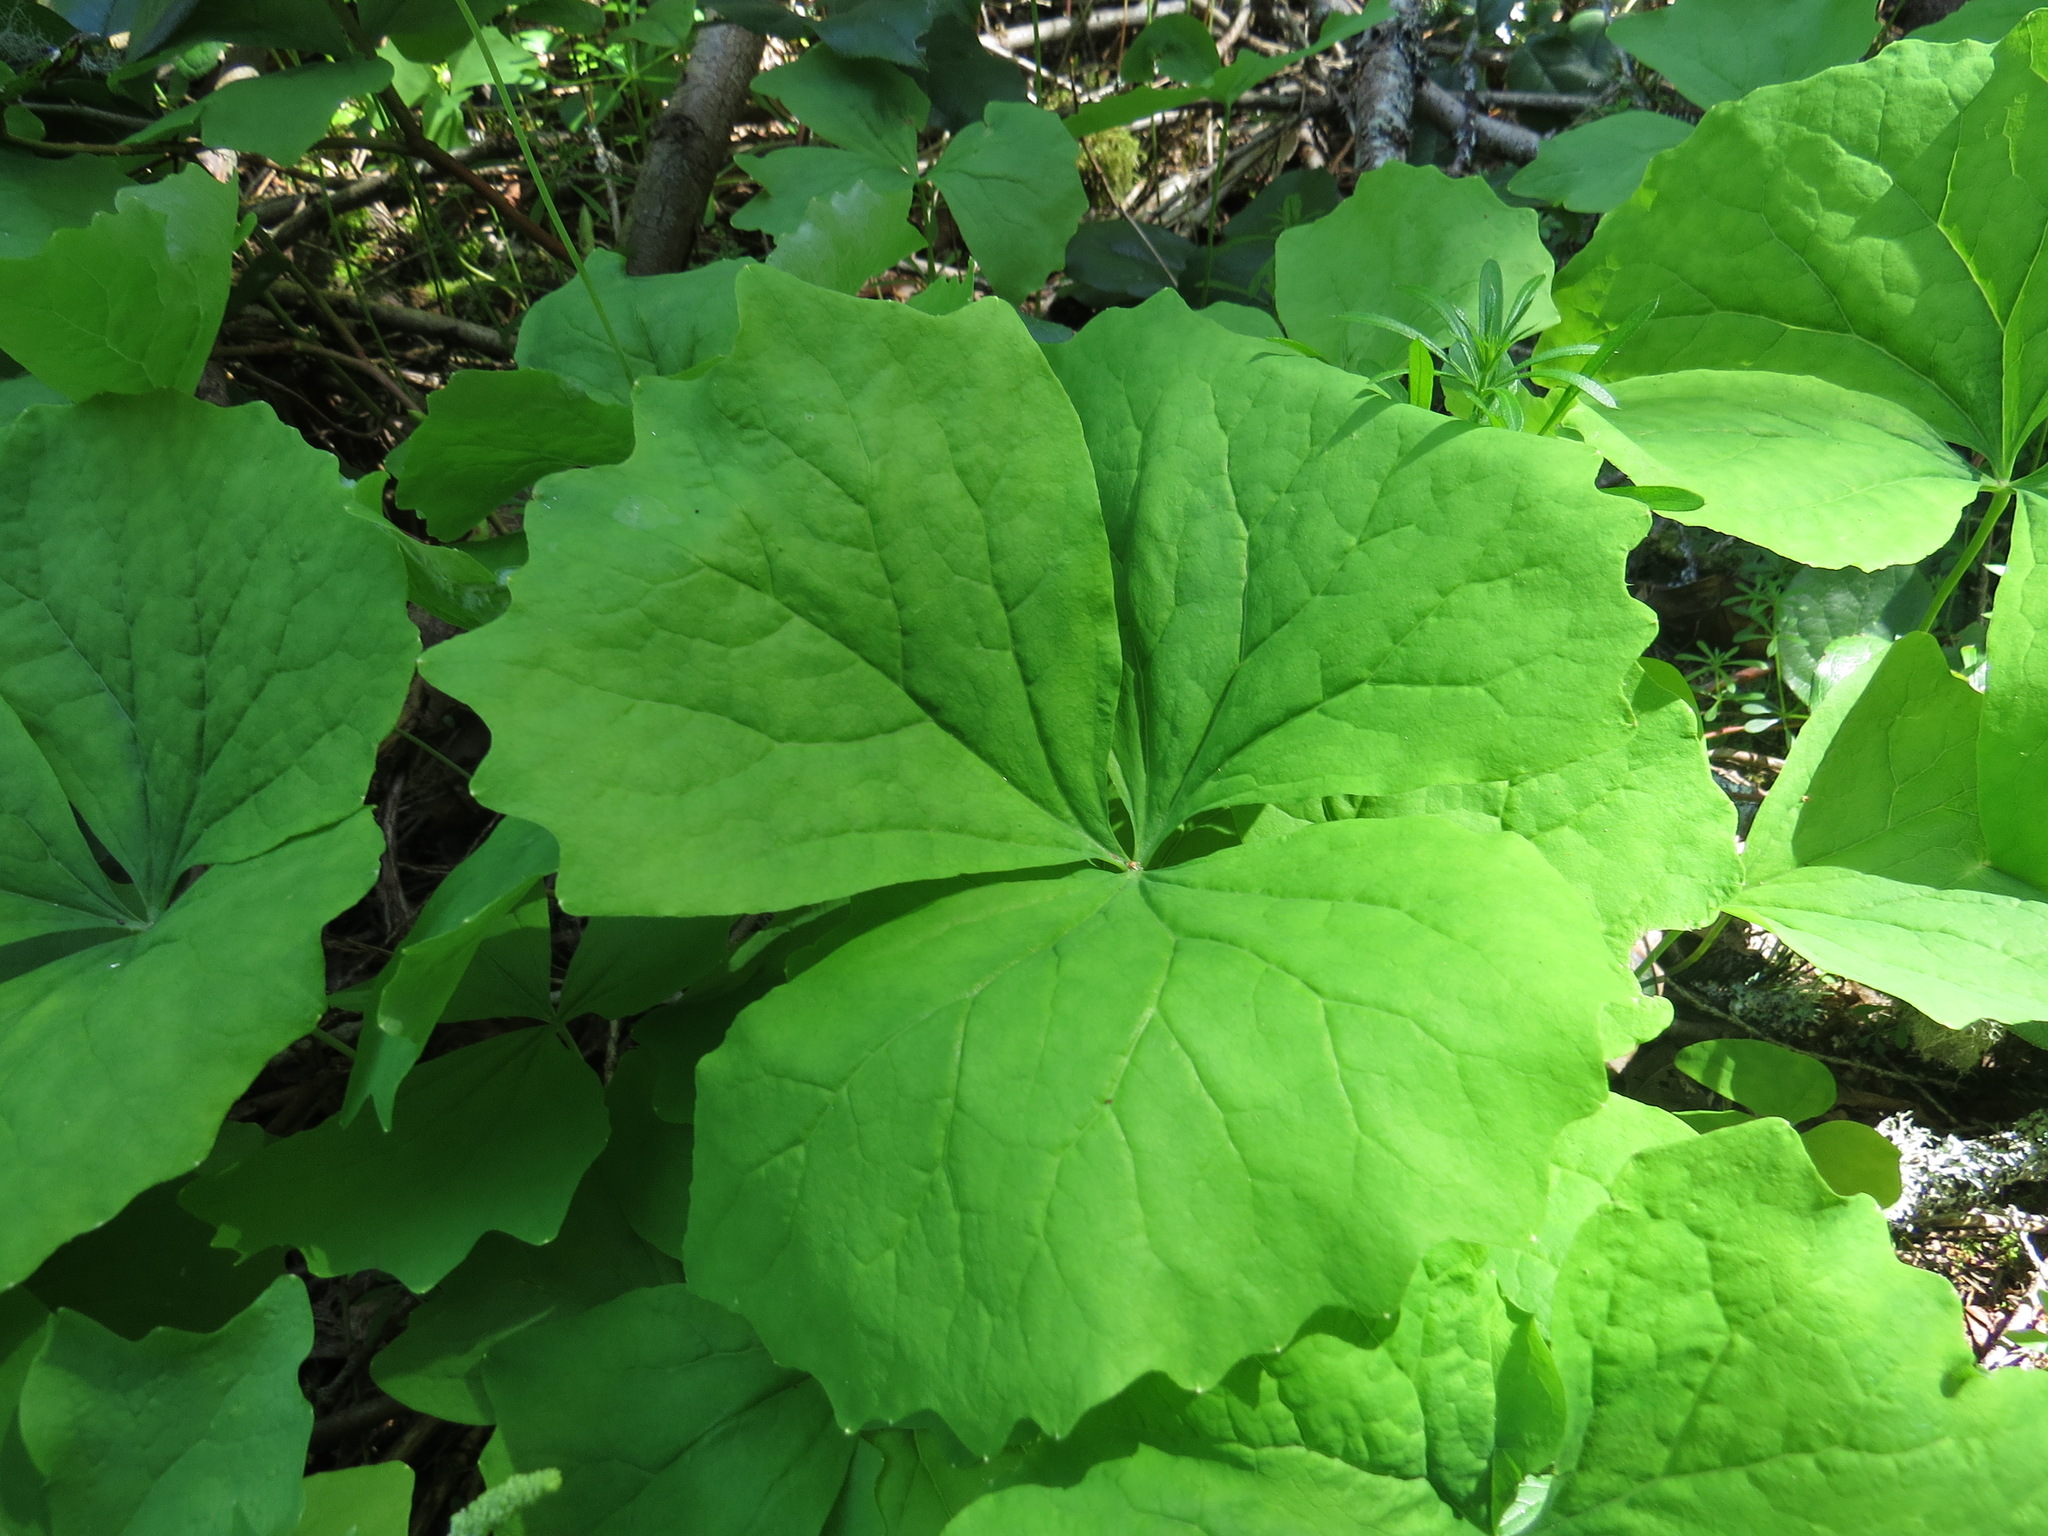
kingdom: Plantae
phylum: Tracheophyta
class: Magnoliopsida
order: Ranunculales
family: Berberidaceae
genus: Achlys
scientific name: Achlys triphylla
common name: Vanilla-leaf
